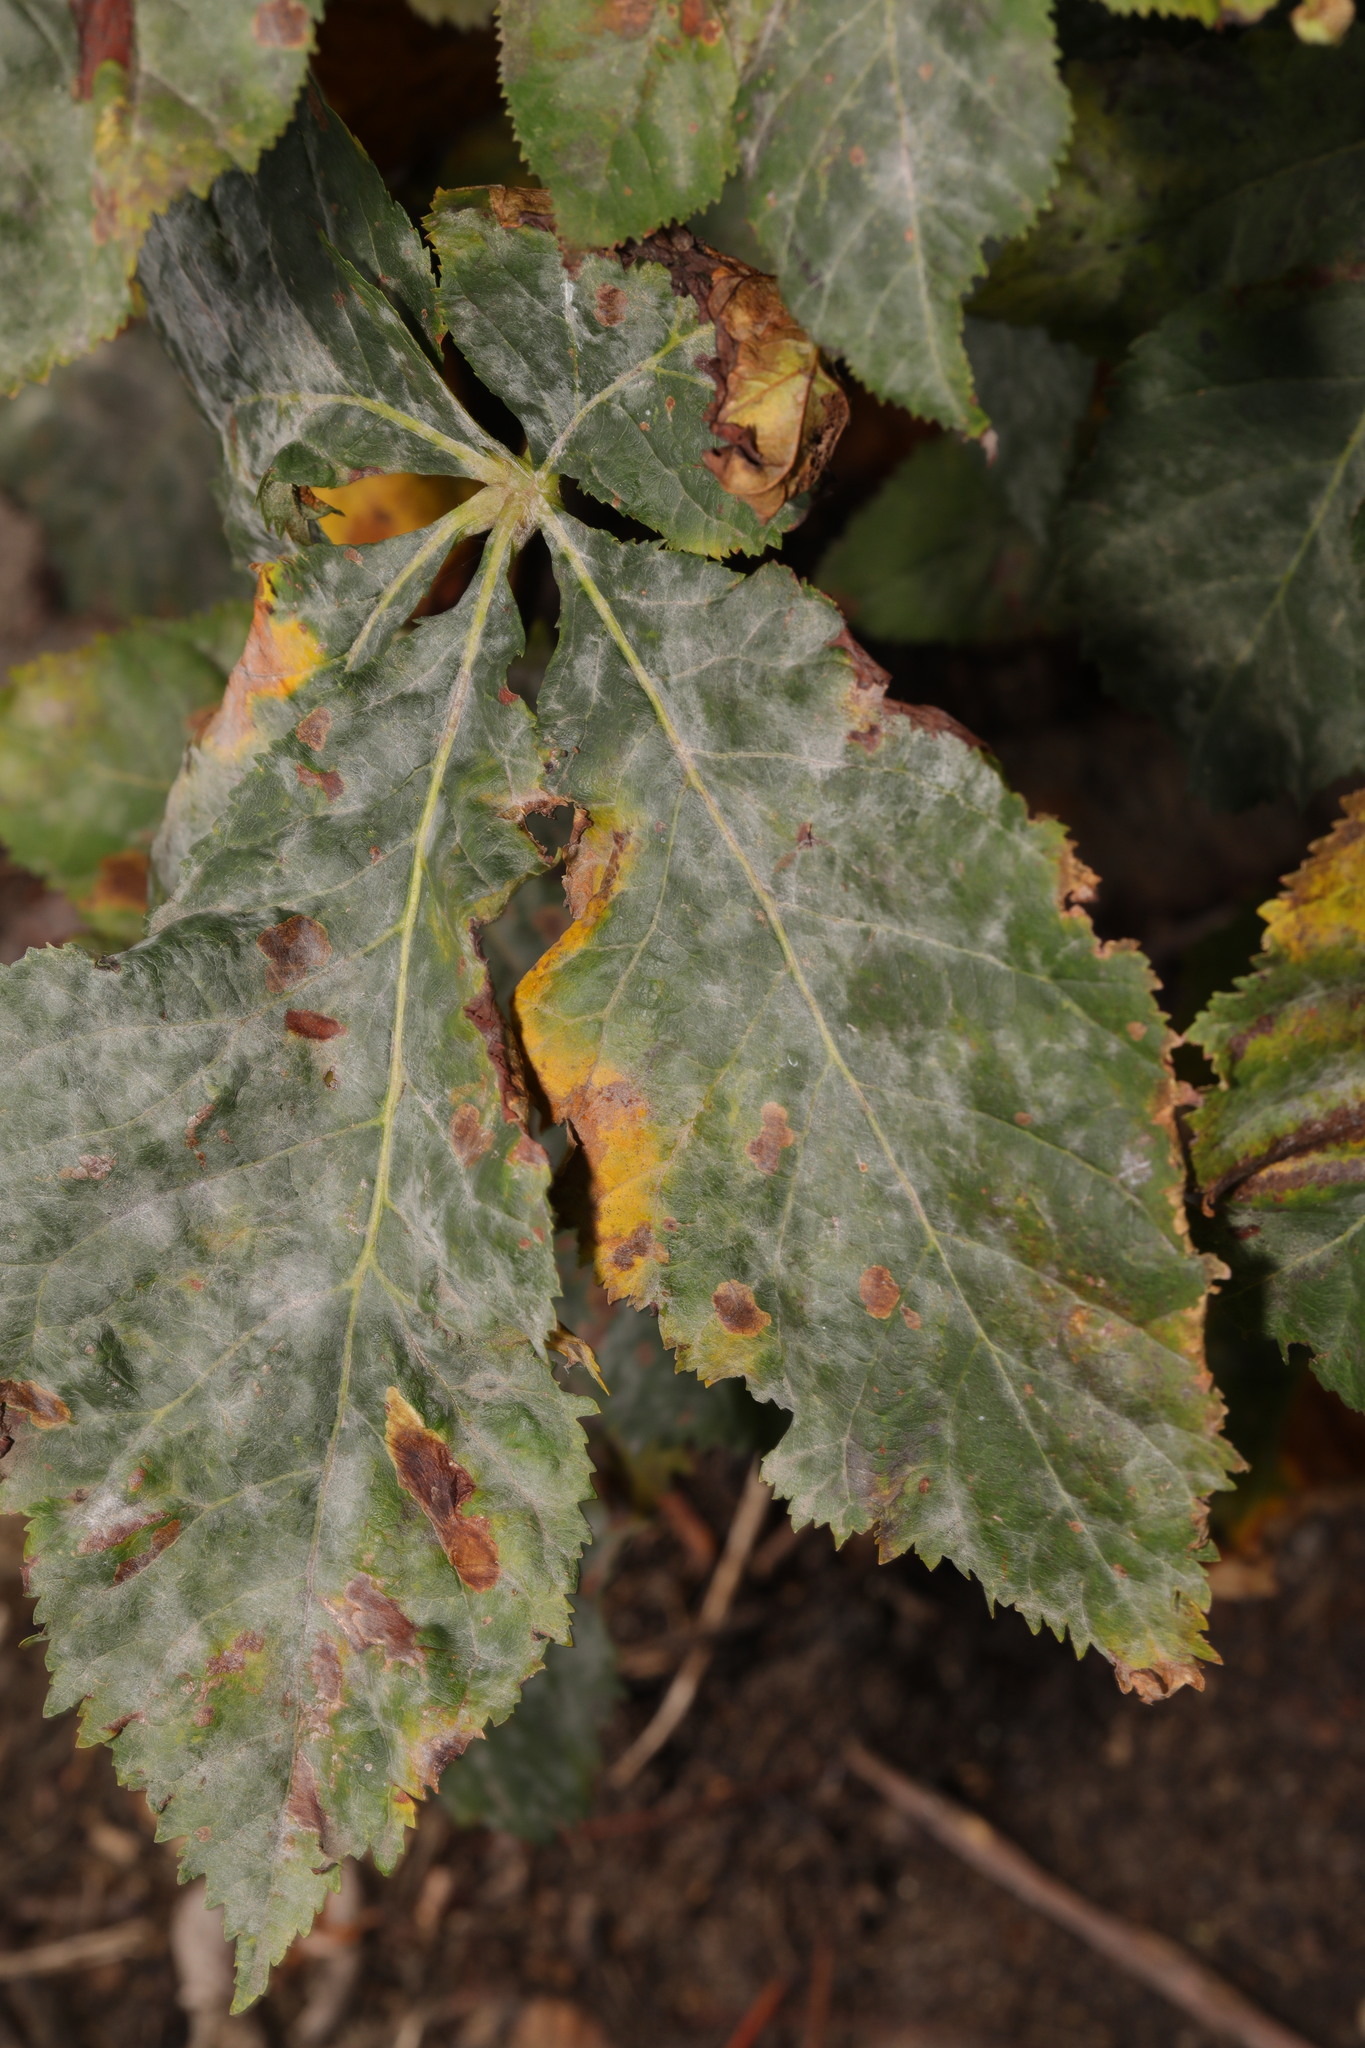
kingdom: Plantae
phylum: Tracheophyta
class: Magnoliopsida
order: Sapindales
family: Sapindaceae
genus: Aesculus
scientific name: Aesculus carnea
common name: Red horse-chestnut
